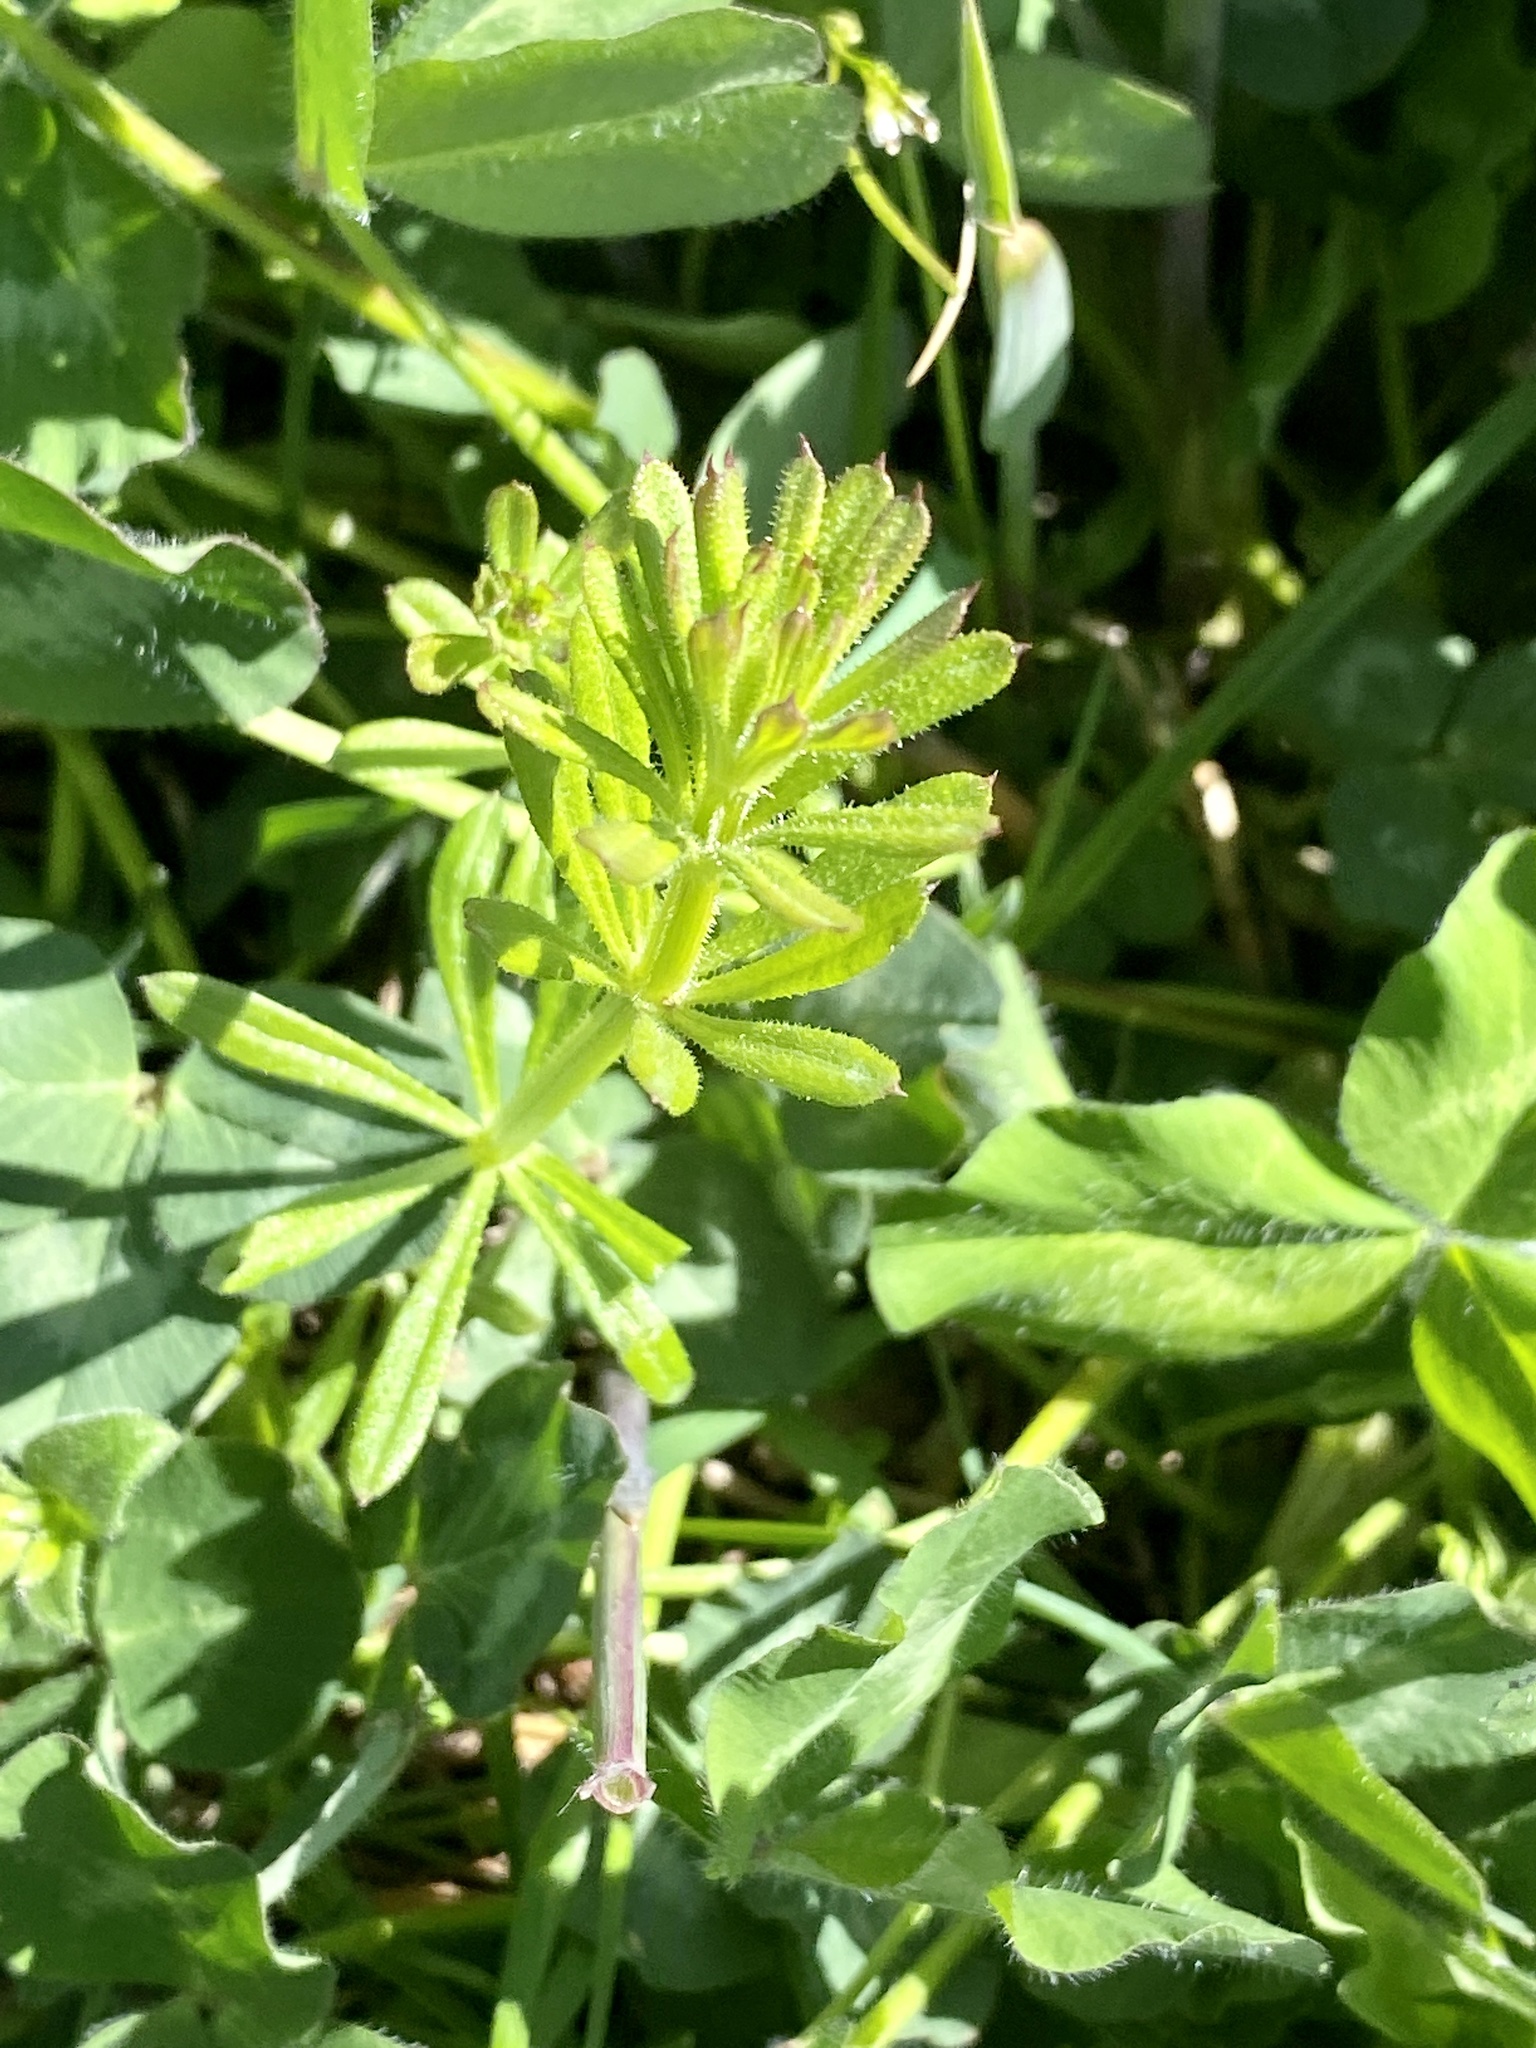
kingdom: Plantae
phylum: Tracheophyta
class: Magnoliopsida
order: Gentianales
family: Rubiaceae
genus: Galium
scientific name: Galium aparine
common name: Cleavers
